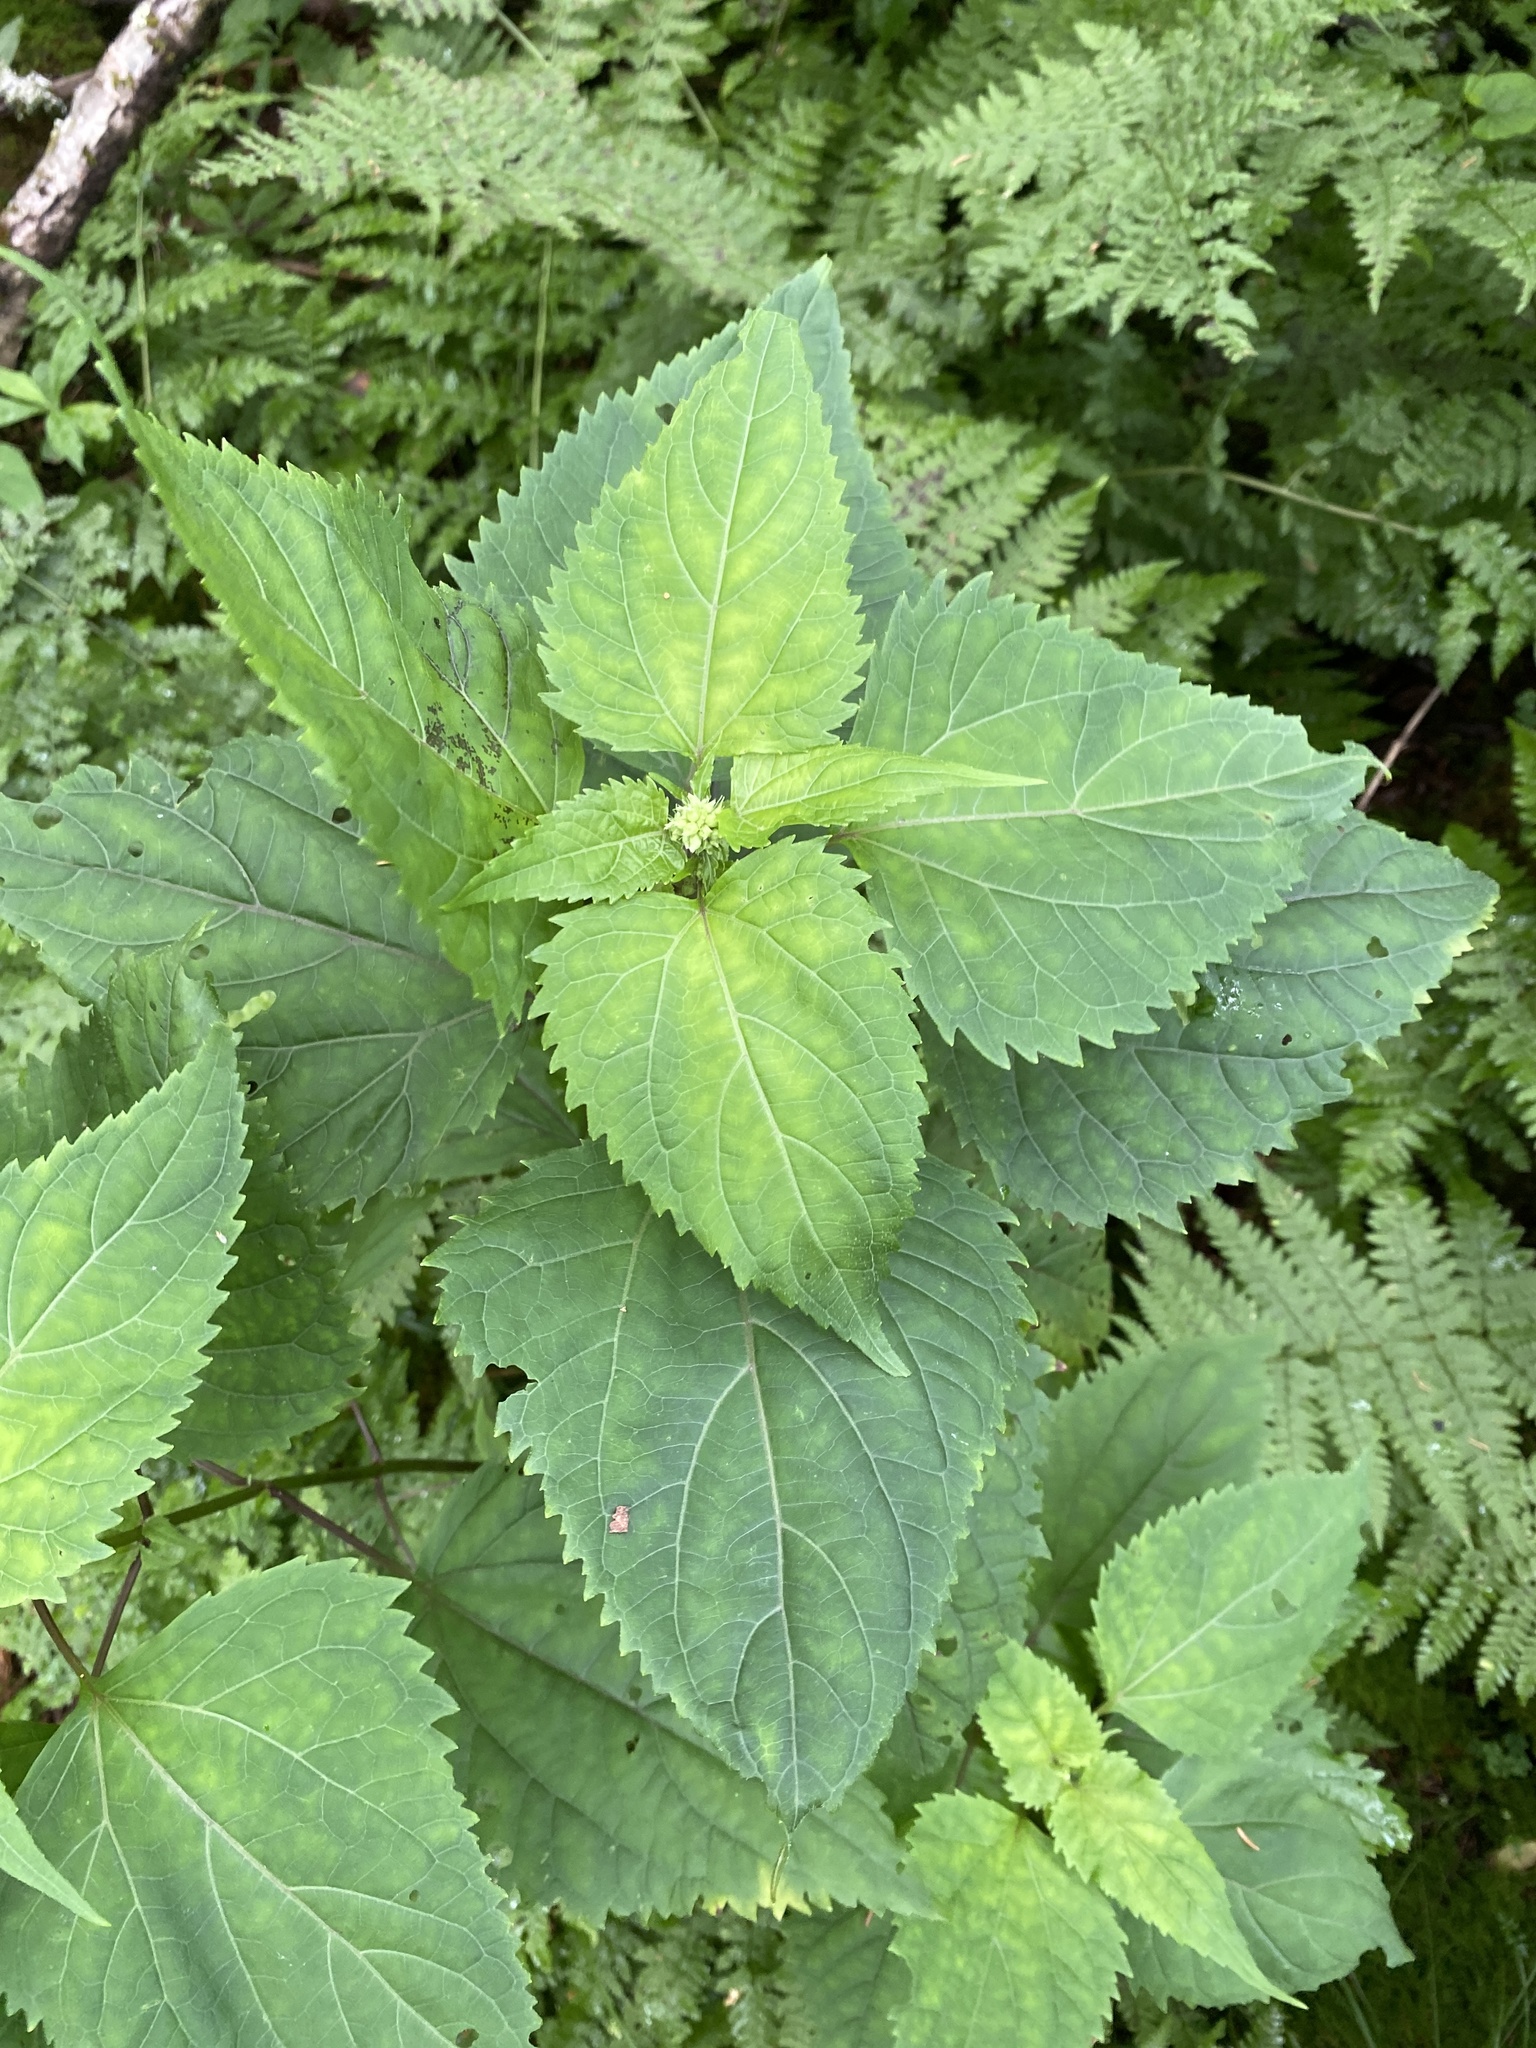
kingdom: Plantae
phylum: Tracheophyta
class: Magnoliopsida
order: Asterales
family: Asteraceae
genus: Ageratina
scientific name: Ageratina roanensis
